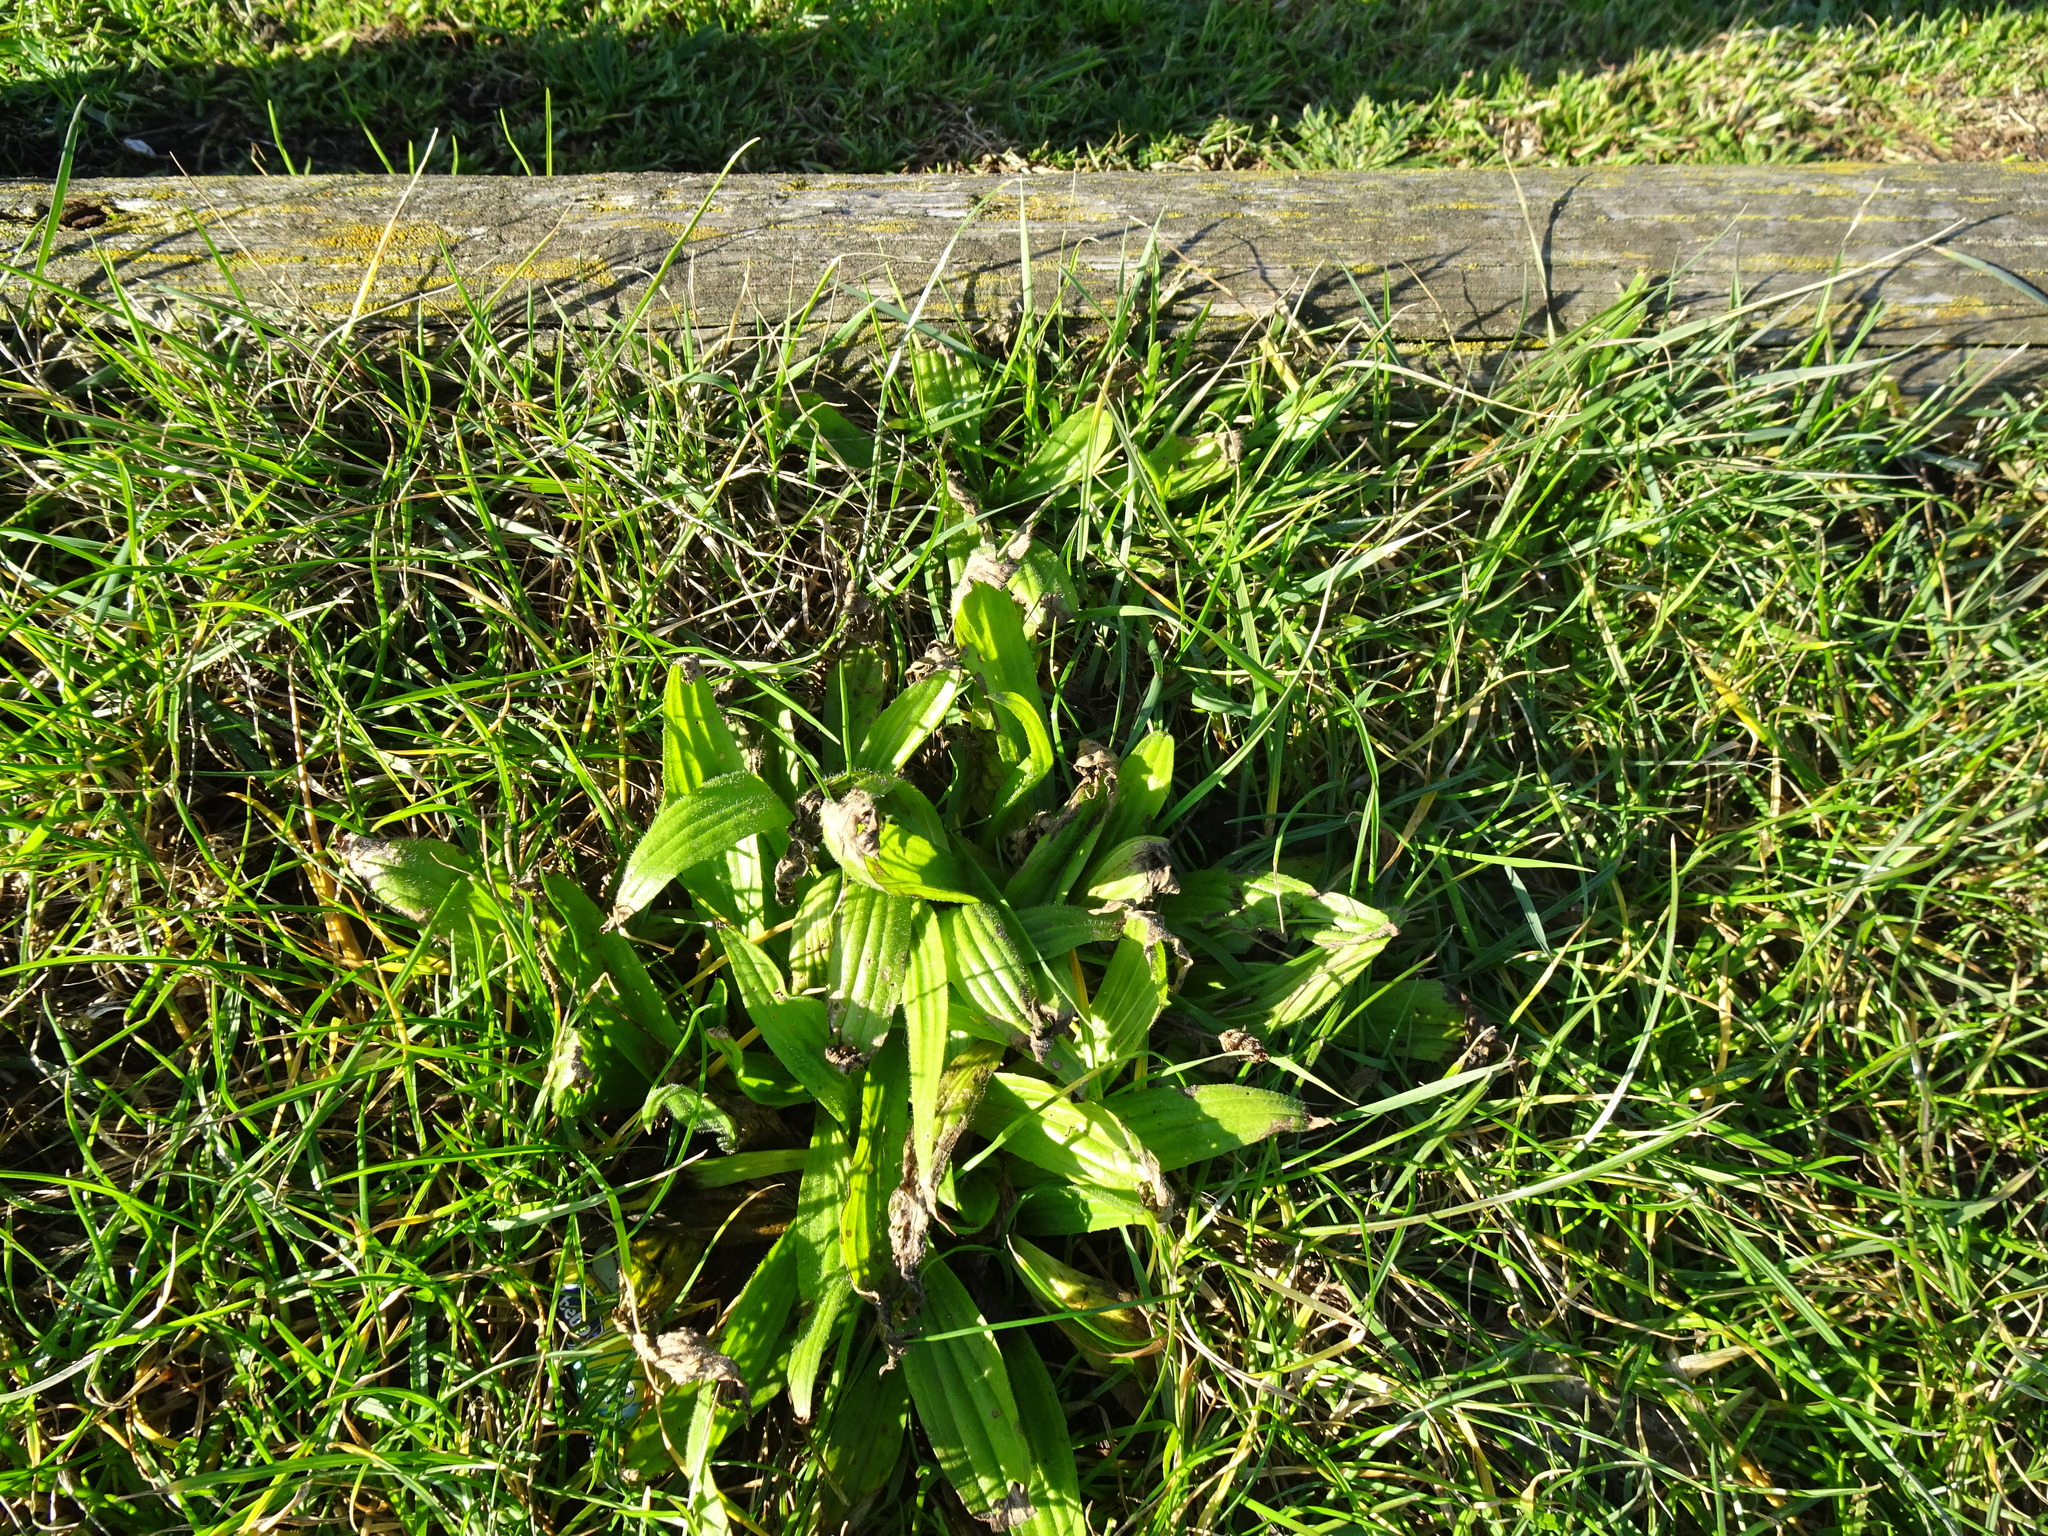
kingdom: Plantae
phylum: Tracheophyta
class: Magnoliopsida
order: Lamiales
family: Plantaginaceae
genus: Plantago
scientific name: Plantago lanceolata
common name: Ribwort plantain
